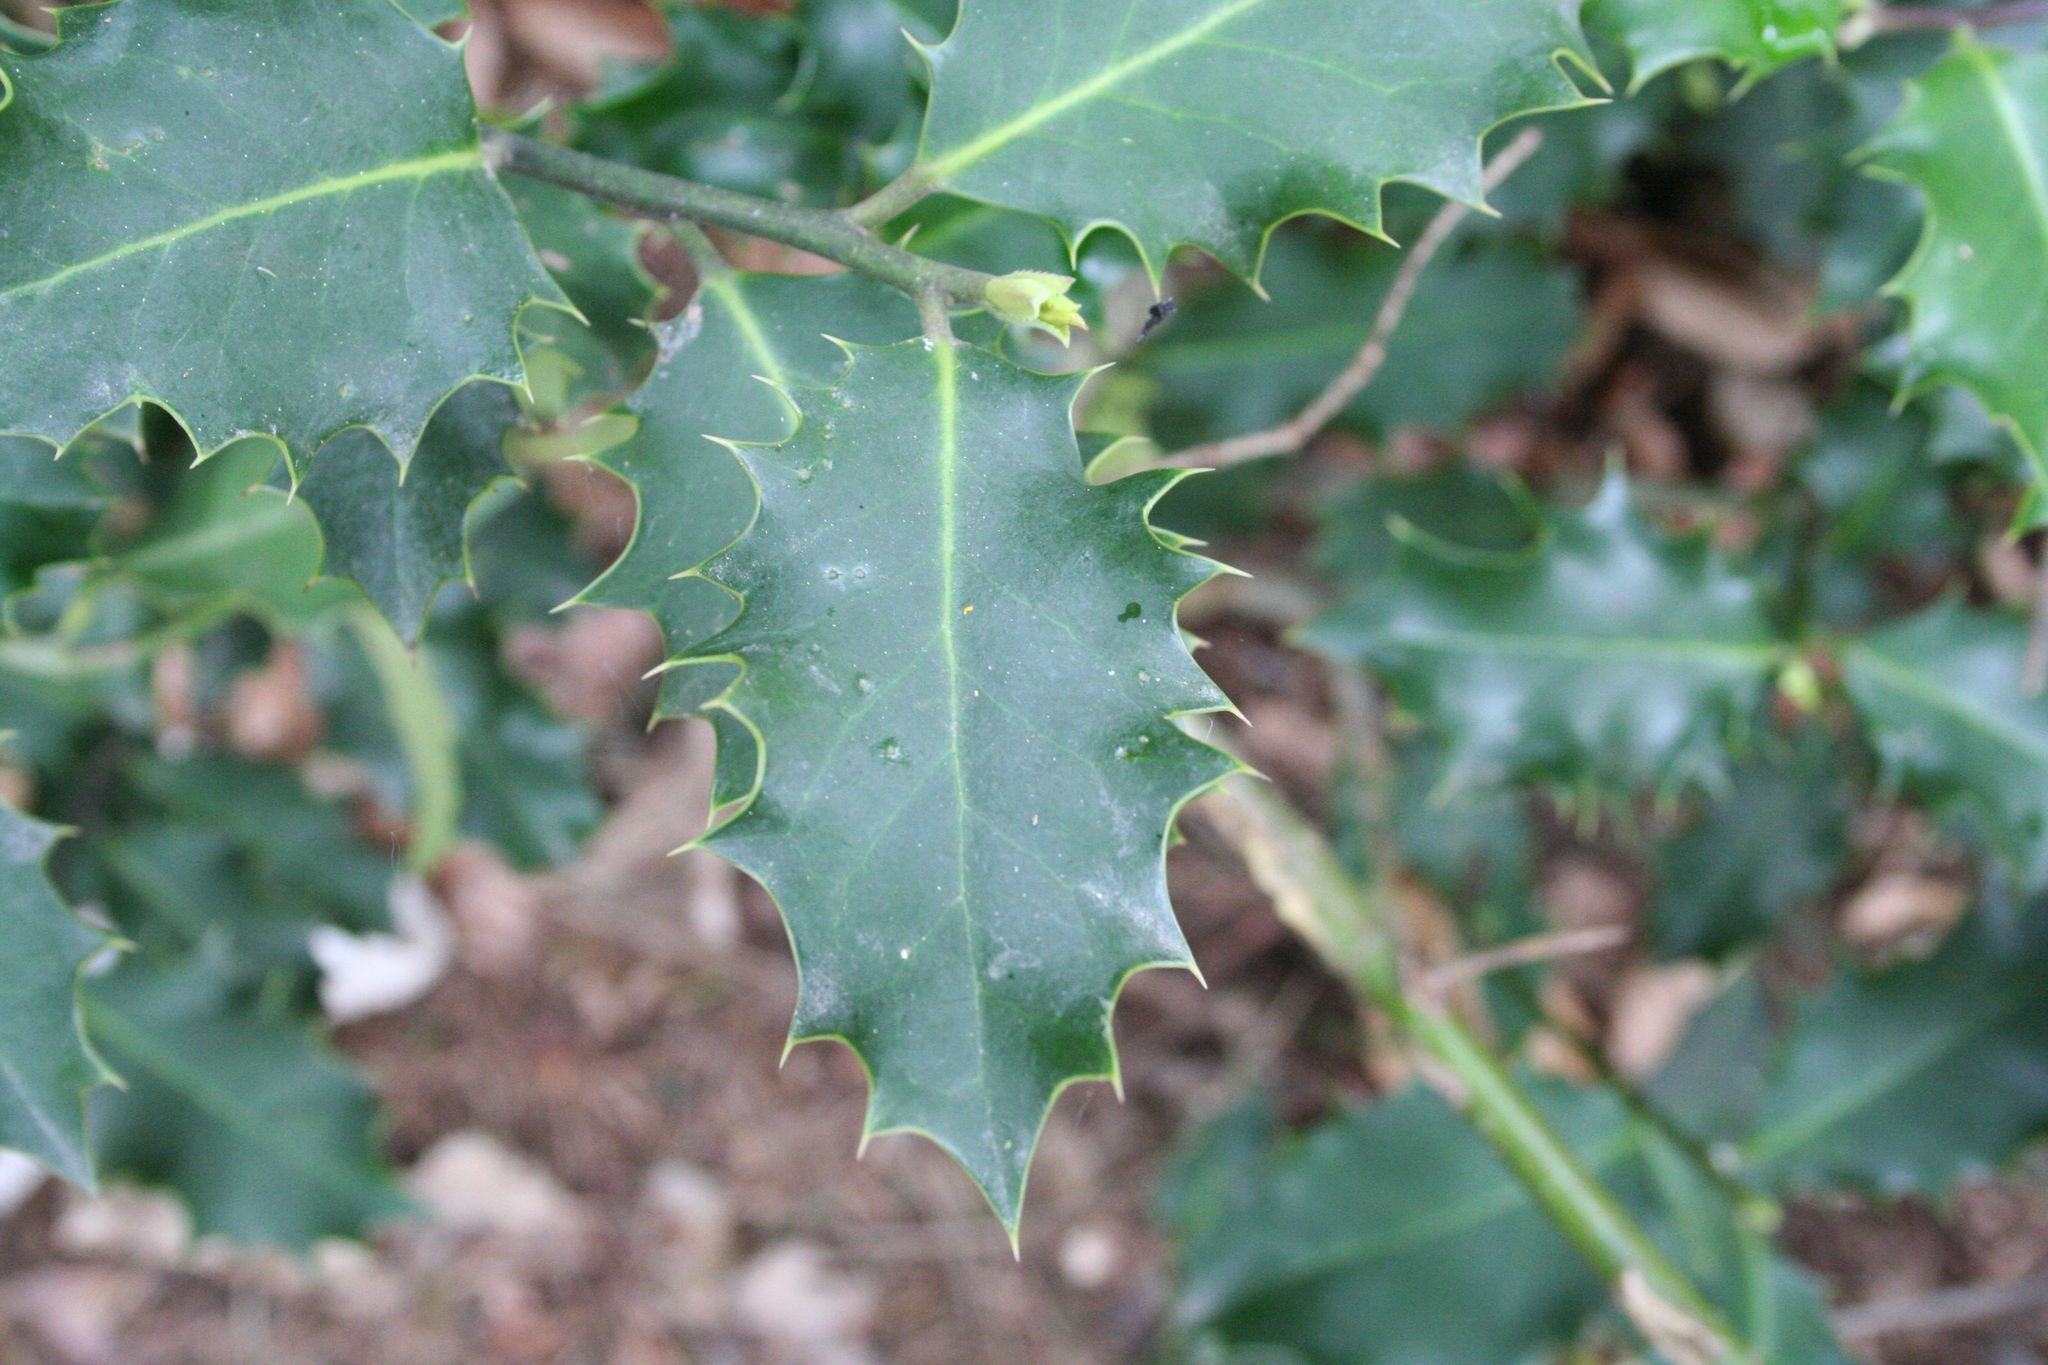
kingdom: Plantae
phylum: Tracheophyta
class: Magnoliopsida
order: Aquifoliales
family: Aquifoliaceae
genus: Ilex
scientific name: Ilex aquifolium
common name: English holly
